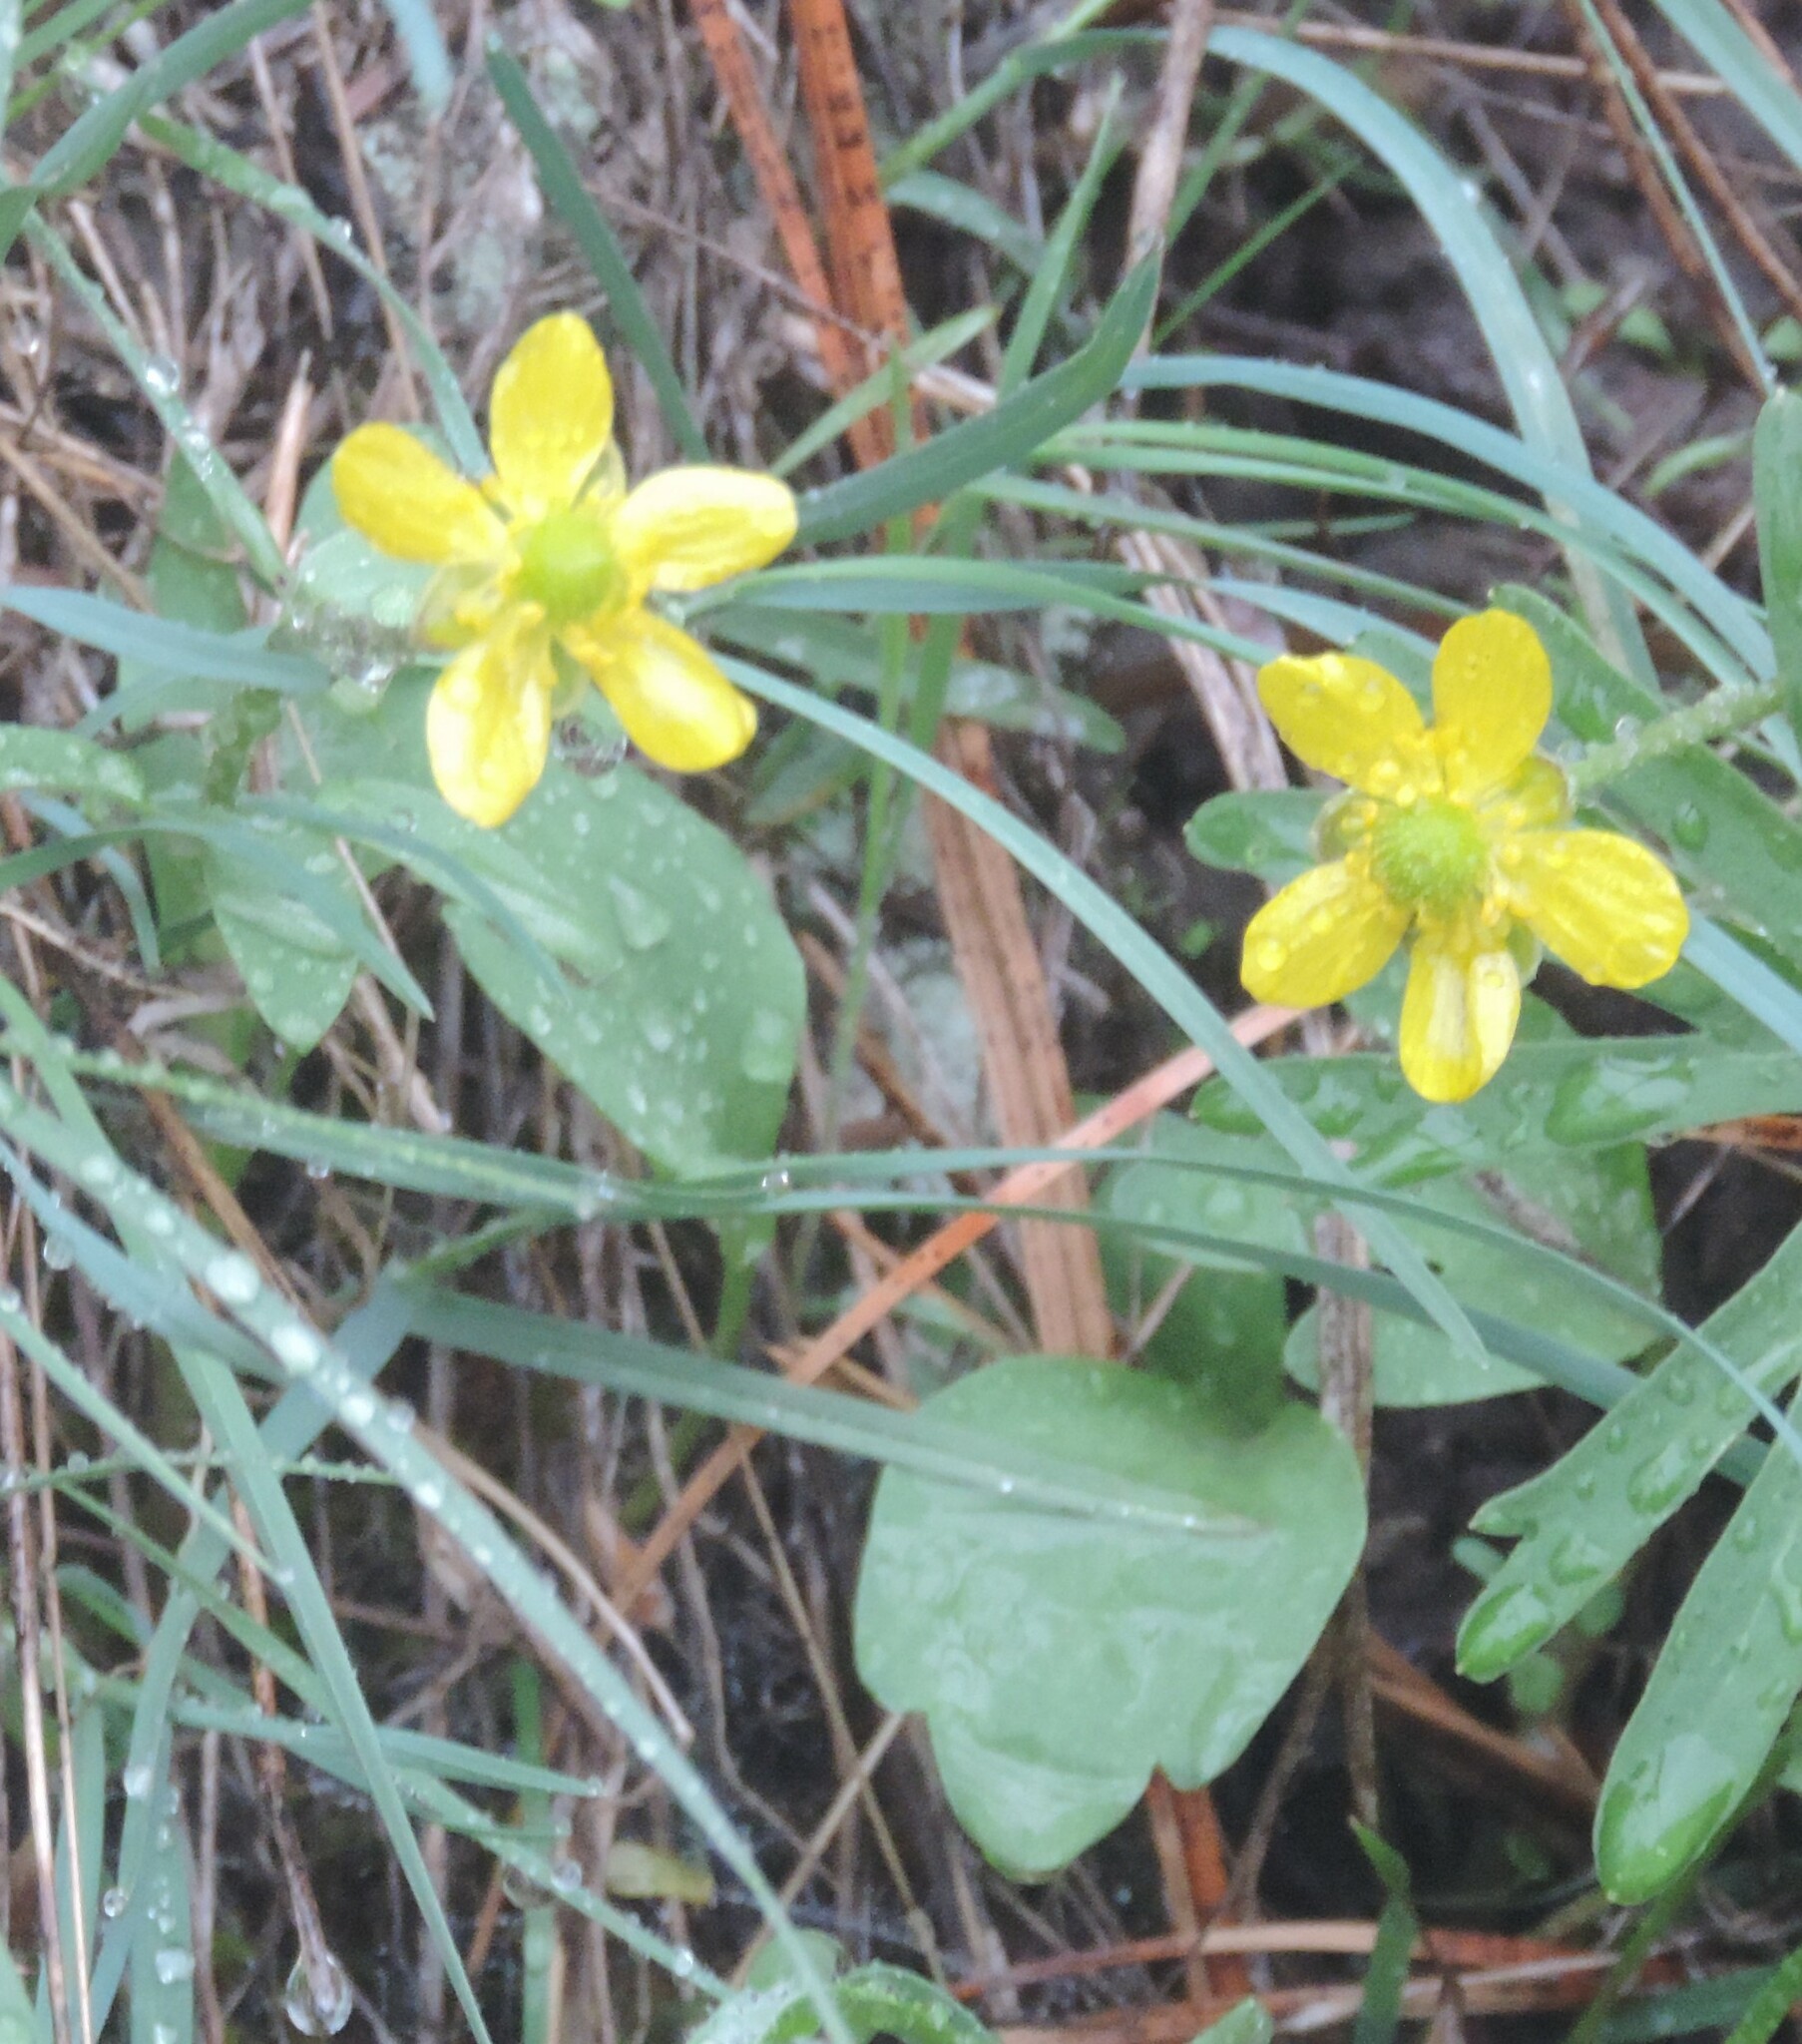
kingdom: Plantae
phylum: Tracheophyta
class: Magnoliopsida
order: Ranunculales
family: Ranunculaceae
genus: Ranunculus
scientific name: Ranunculus glaberrimus
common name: Sagebrush buttercup
